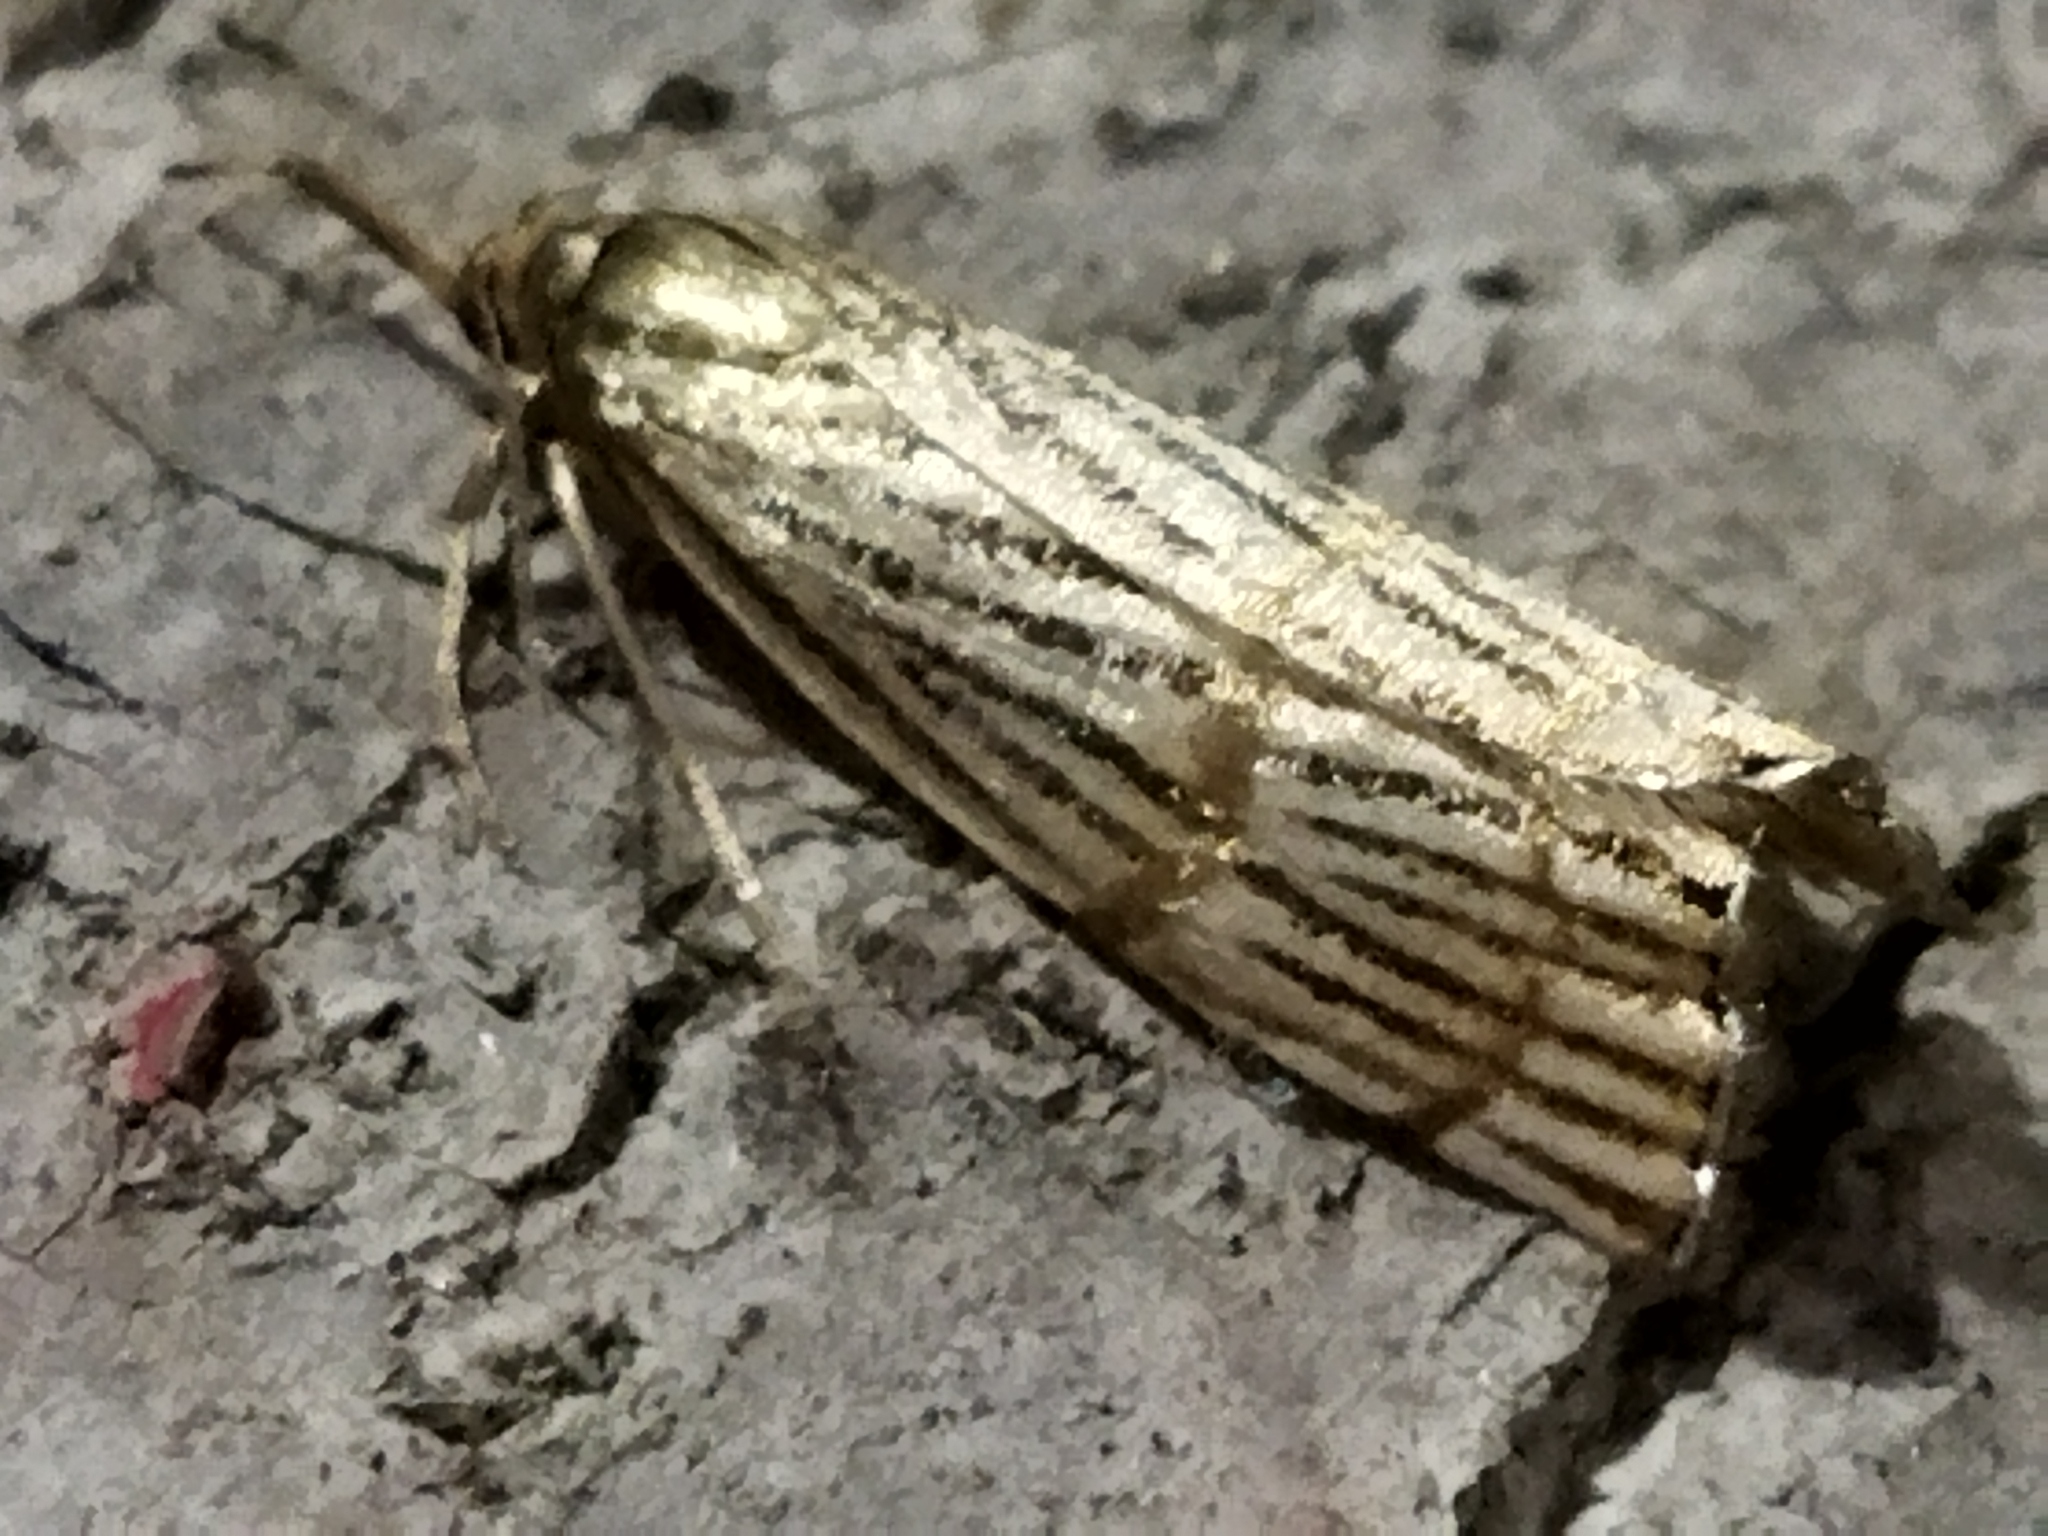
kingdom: Animalia
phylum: Arthropoda
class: Insecta
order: Lepidoptera
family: Crambidae
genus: Chrysocrambus
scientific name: Chrysocrambus linetella
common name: Orange-bar grass-veneer
